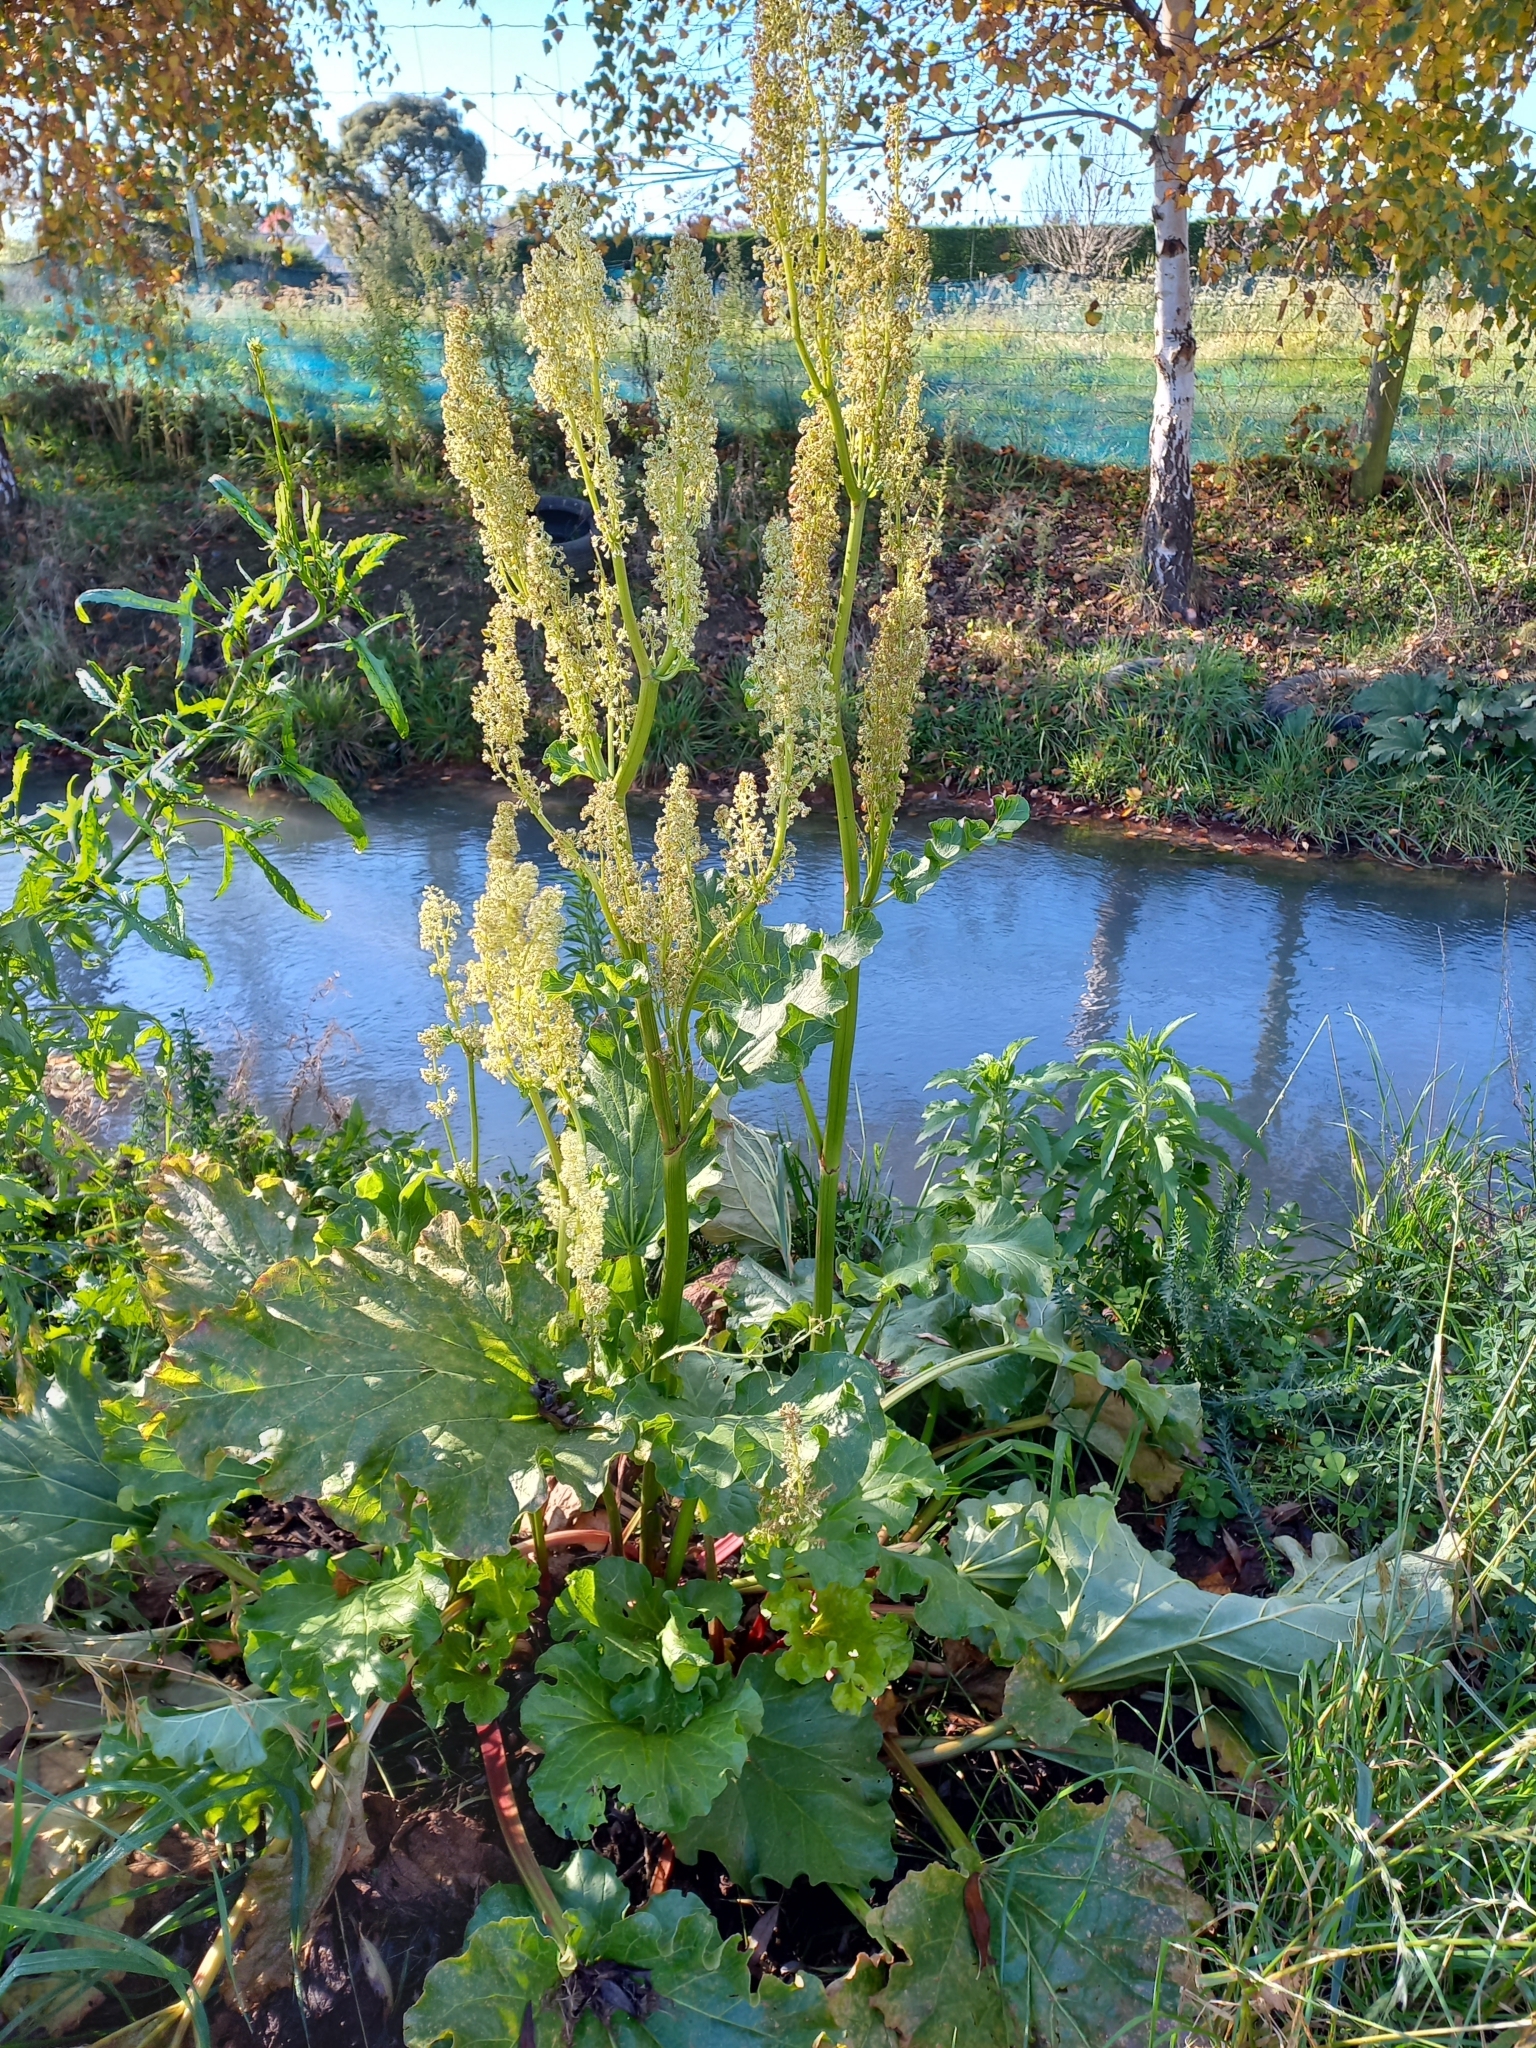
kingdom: Plantae
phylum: Tracheophyta
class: Magnoliopsida
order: Caryophyllales
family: Polygonaceae
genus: Rheum
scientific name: Rheum rhabarbarum
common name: Garden rhubarb
